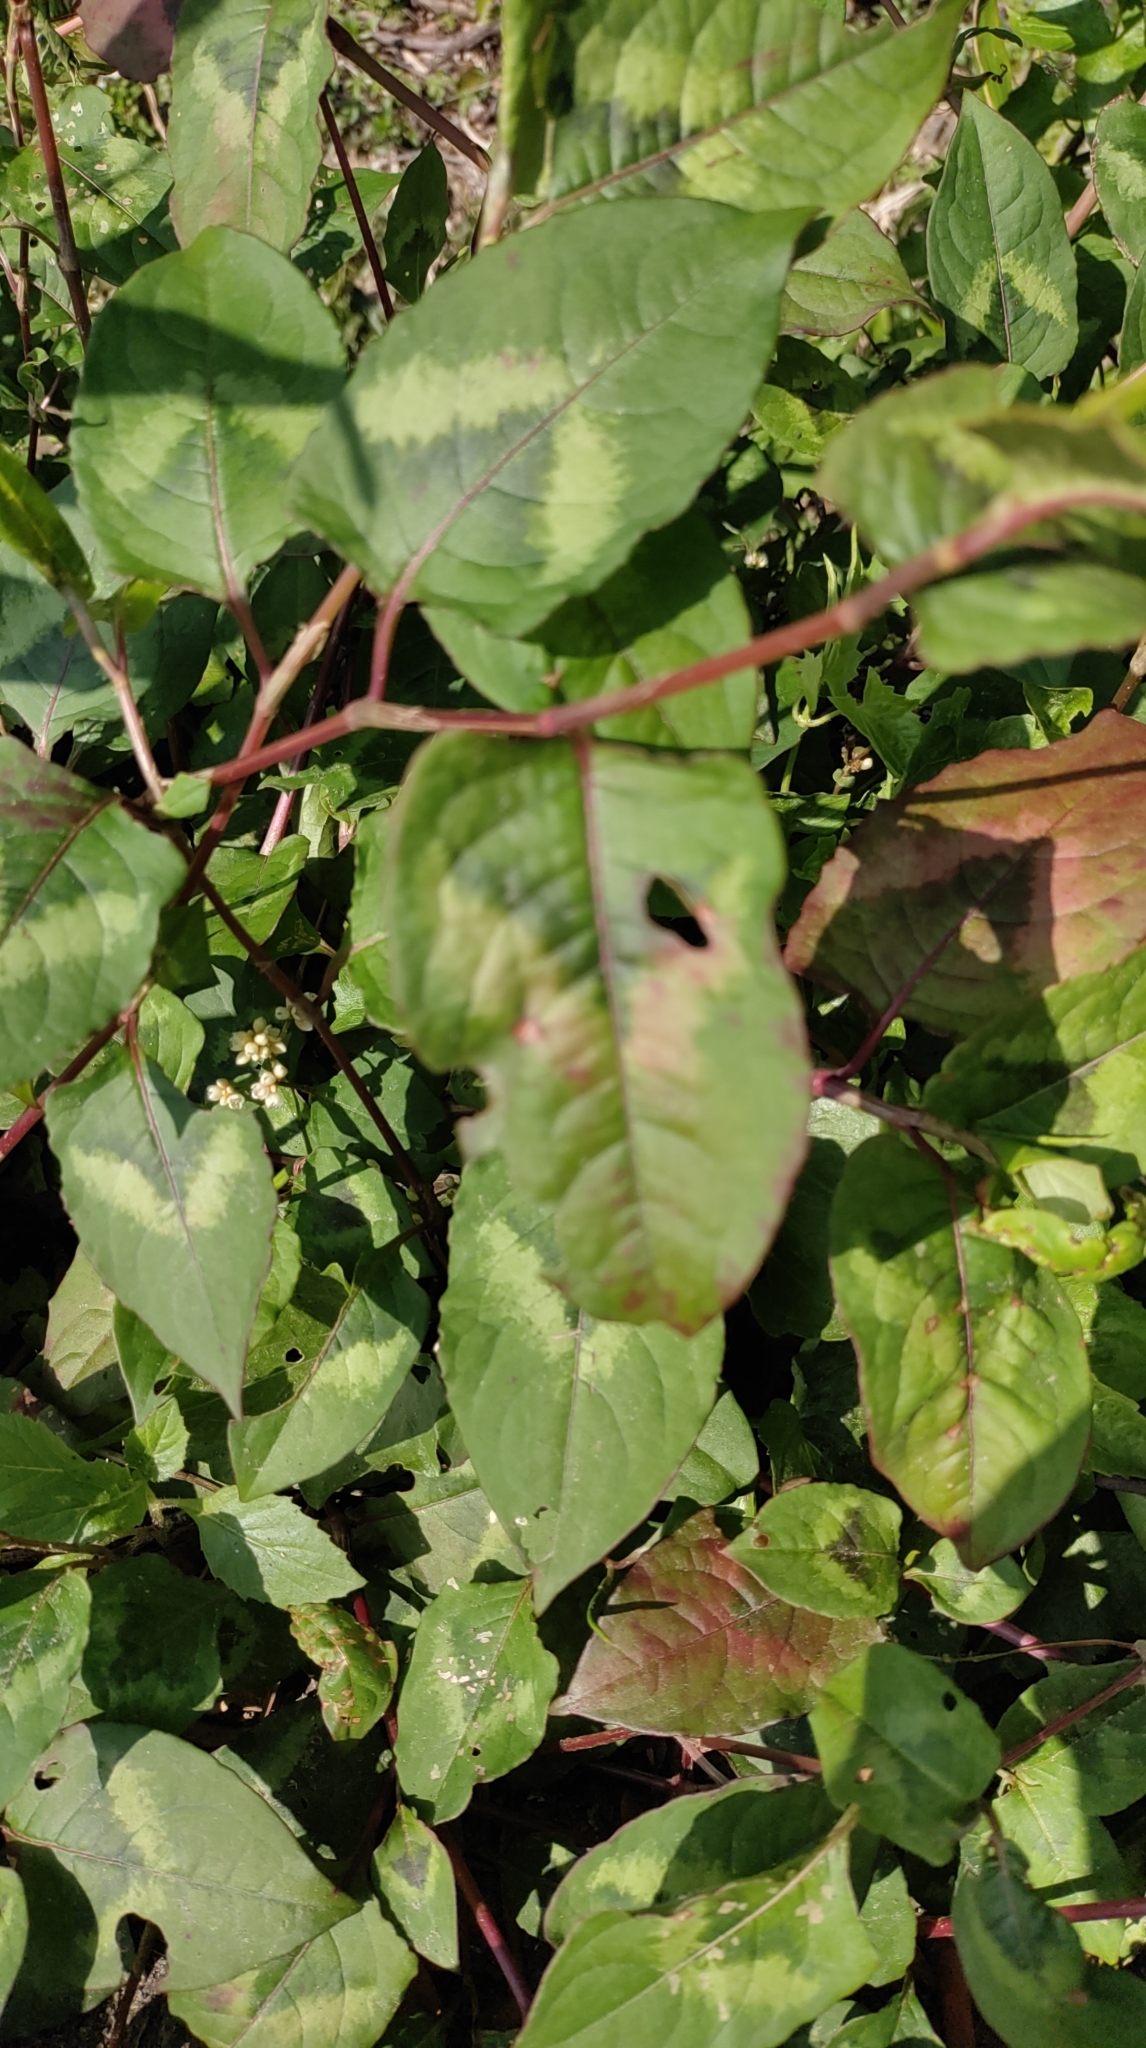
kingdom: Plantae
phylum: Tracheophyta
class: Magnoliopsida
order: Caryophyllales
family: Polygonaceae
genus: Persicaria
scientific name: Persicaria chinensis
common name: Chinese knotweed
